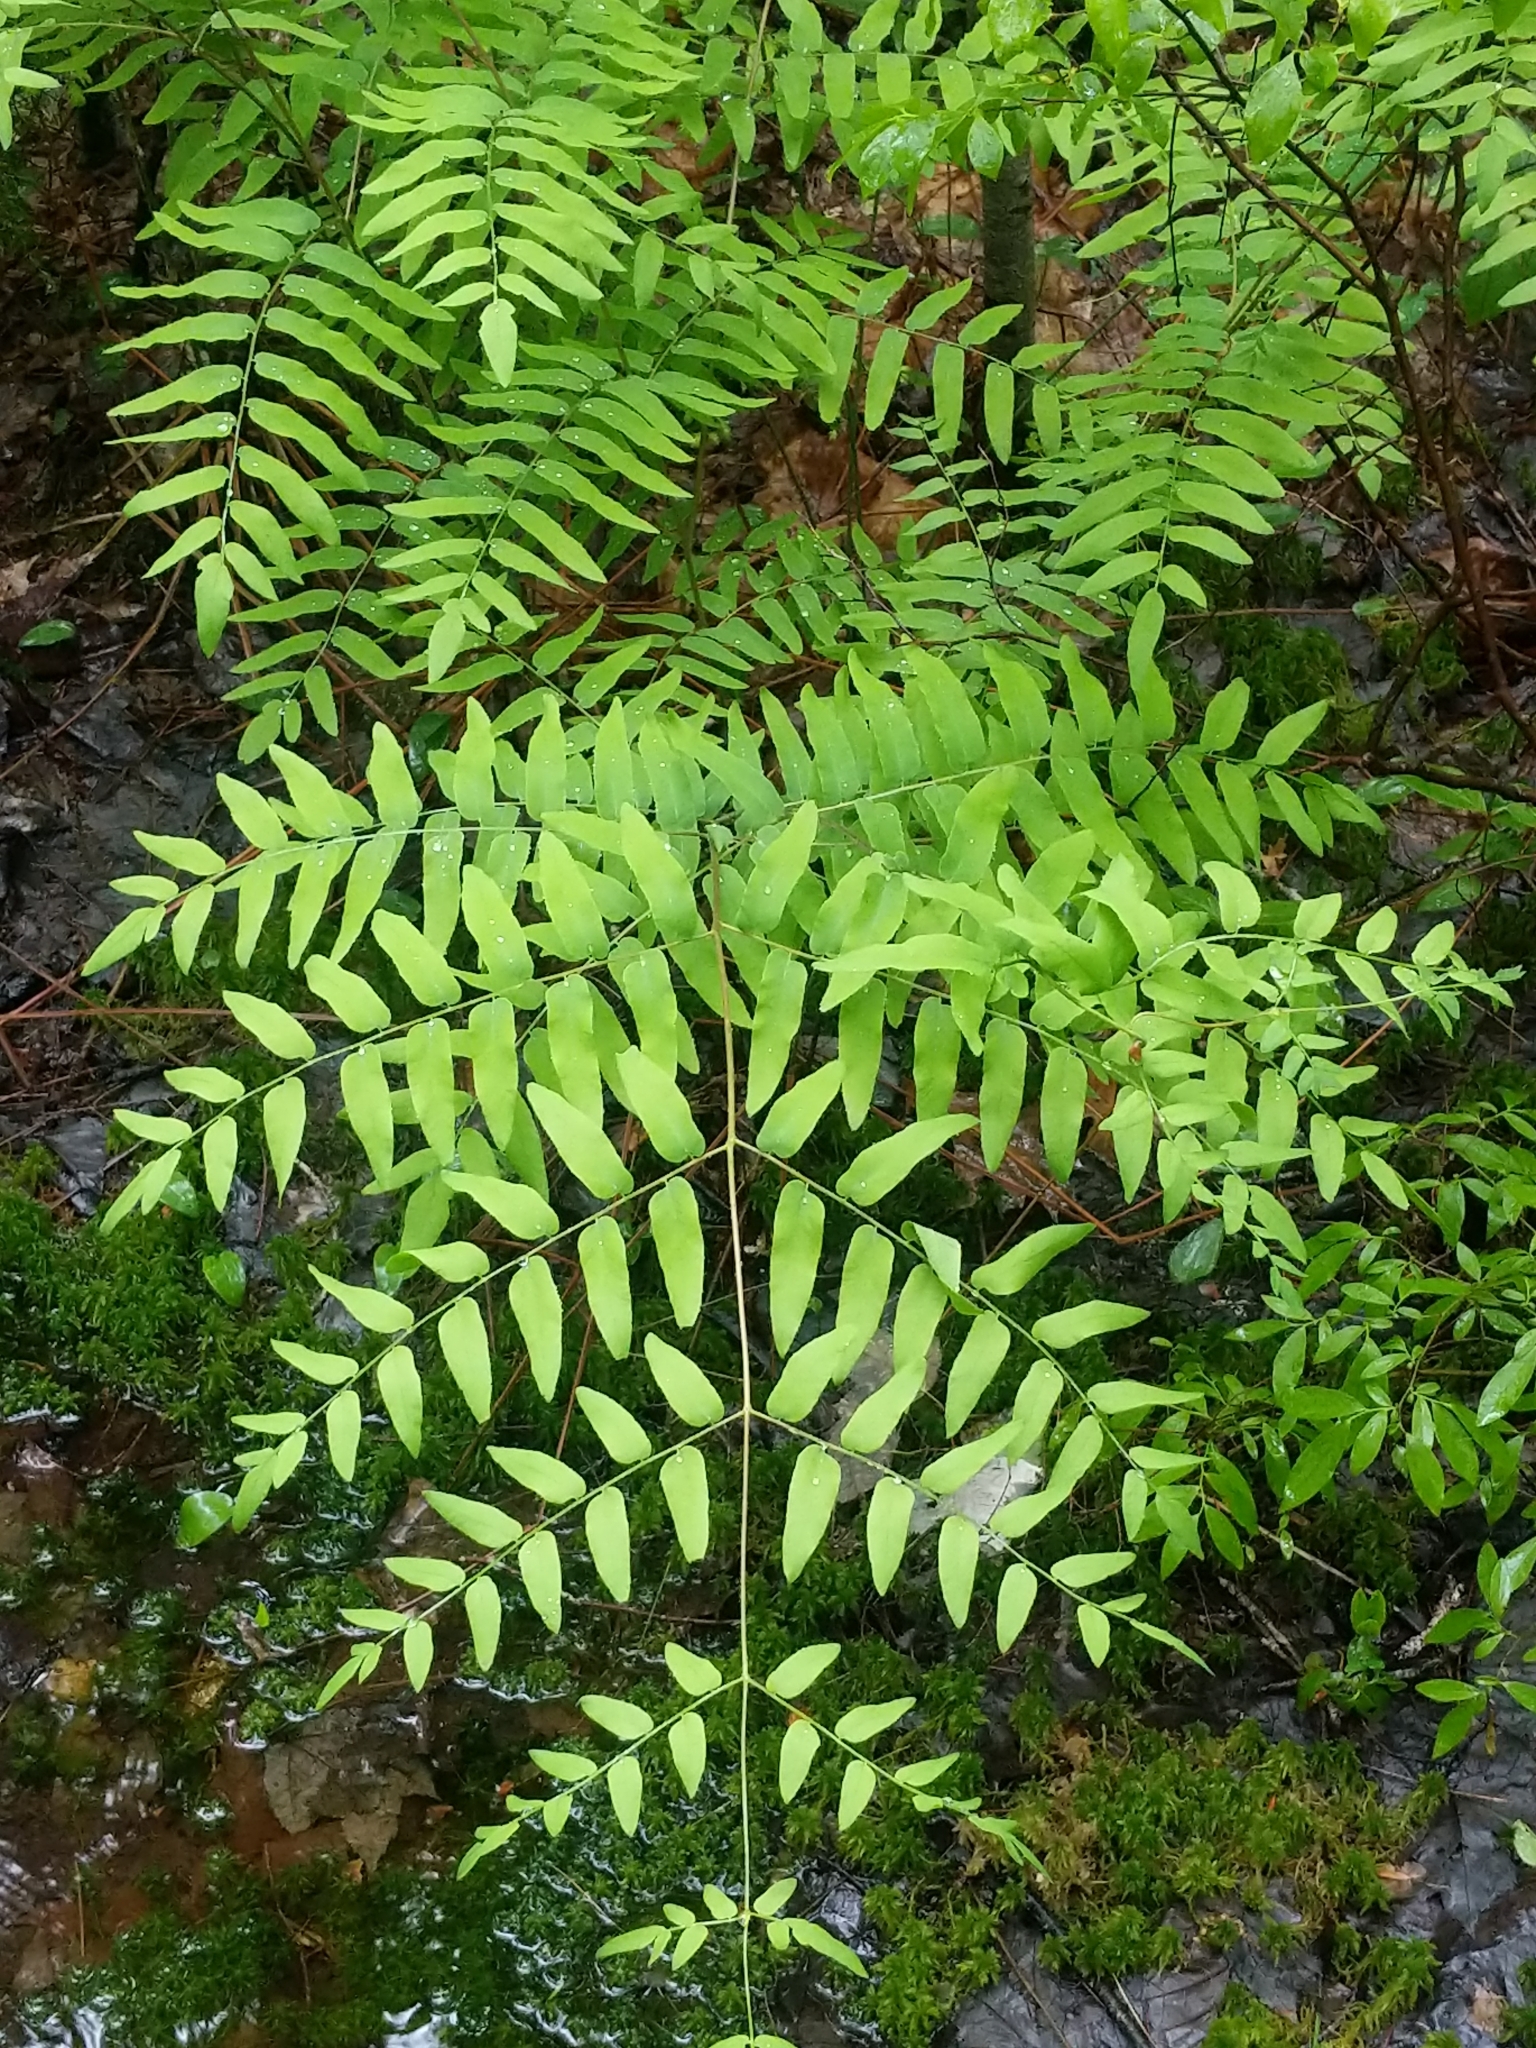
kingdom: Plantae
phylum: Tracheophyta
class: Polypodiopsida
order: Osmundales
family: Osmundaceae
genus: Osmunda
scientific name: Osmunda spectabilis
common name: American royal fern
